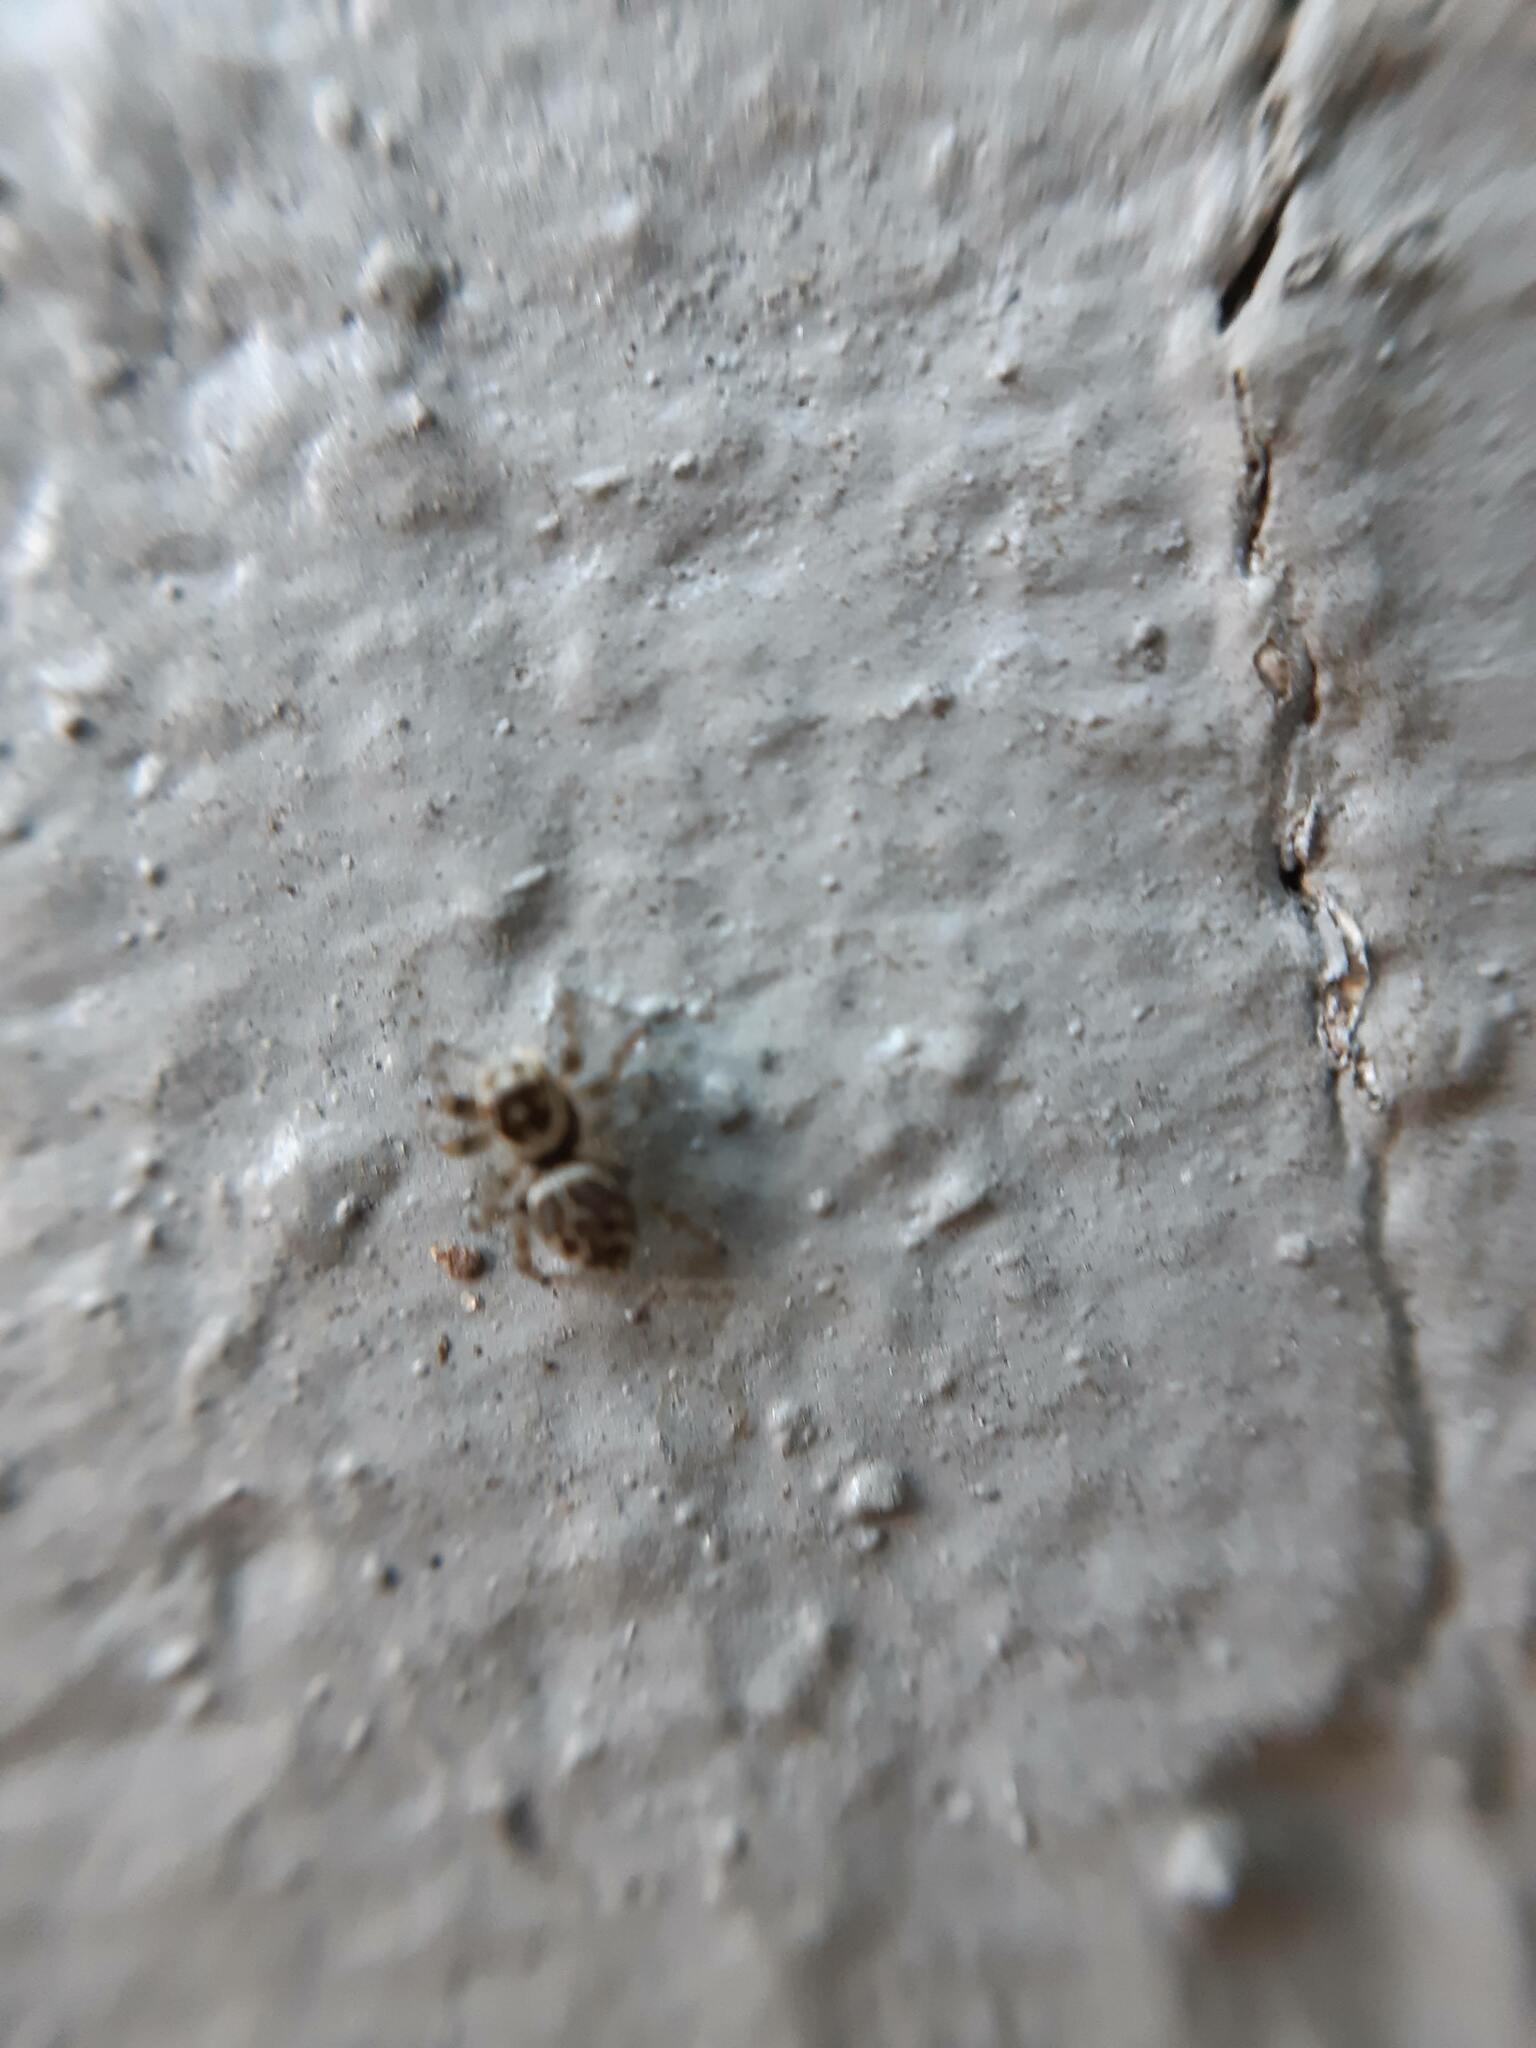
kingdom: Animalia
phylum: Arthropoda
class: Arachnida
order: Araneae
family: Salticidae
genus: Maratus
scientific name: Maratus griseus
